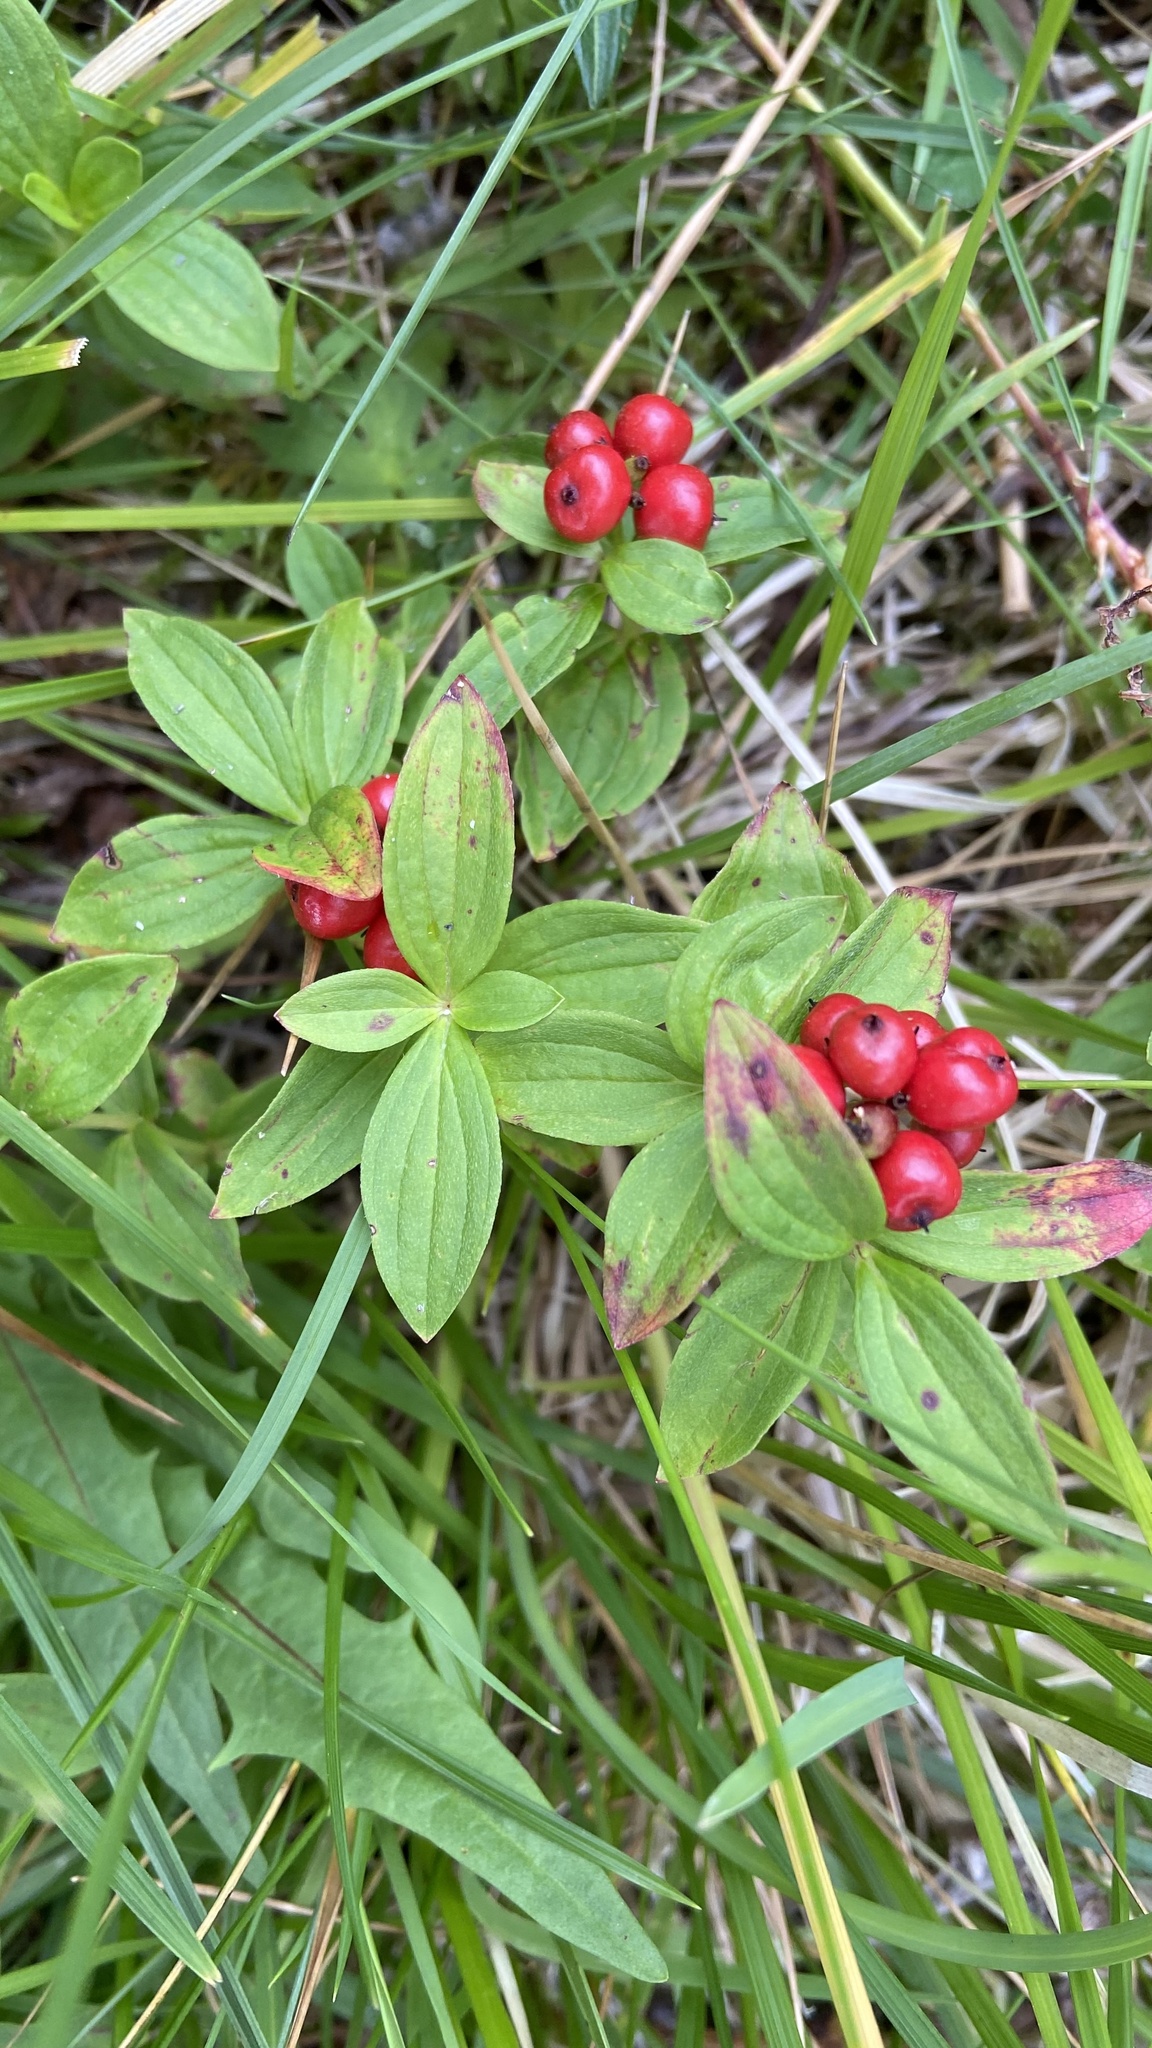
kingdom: Plantae
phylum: Tracheophyta
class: Magnoliopsida
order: Cornales
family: Cornaceae
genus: Cornus
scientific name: Cornus suecica
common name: Dwarf cornel
